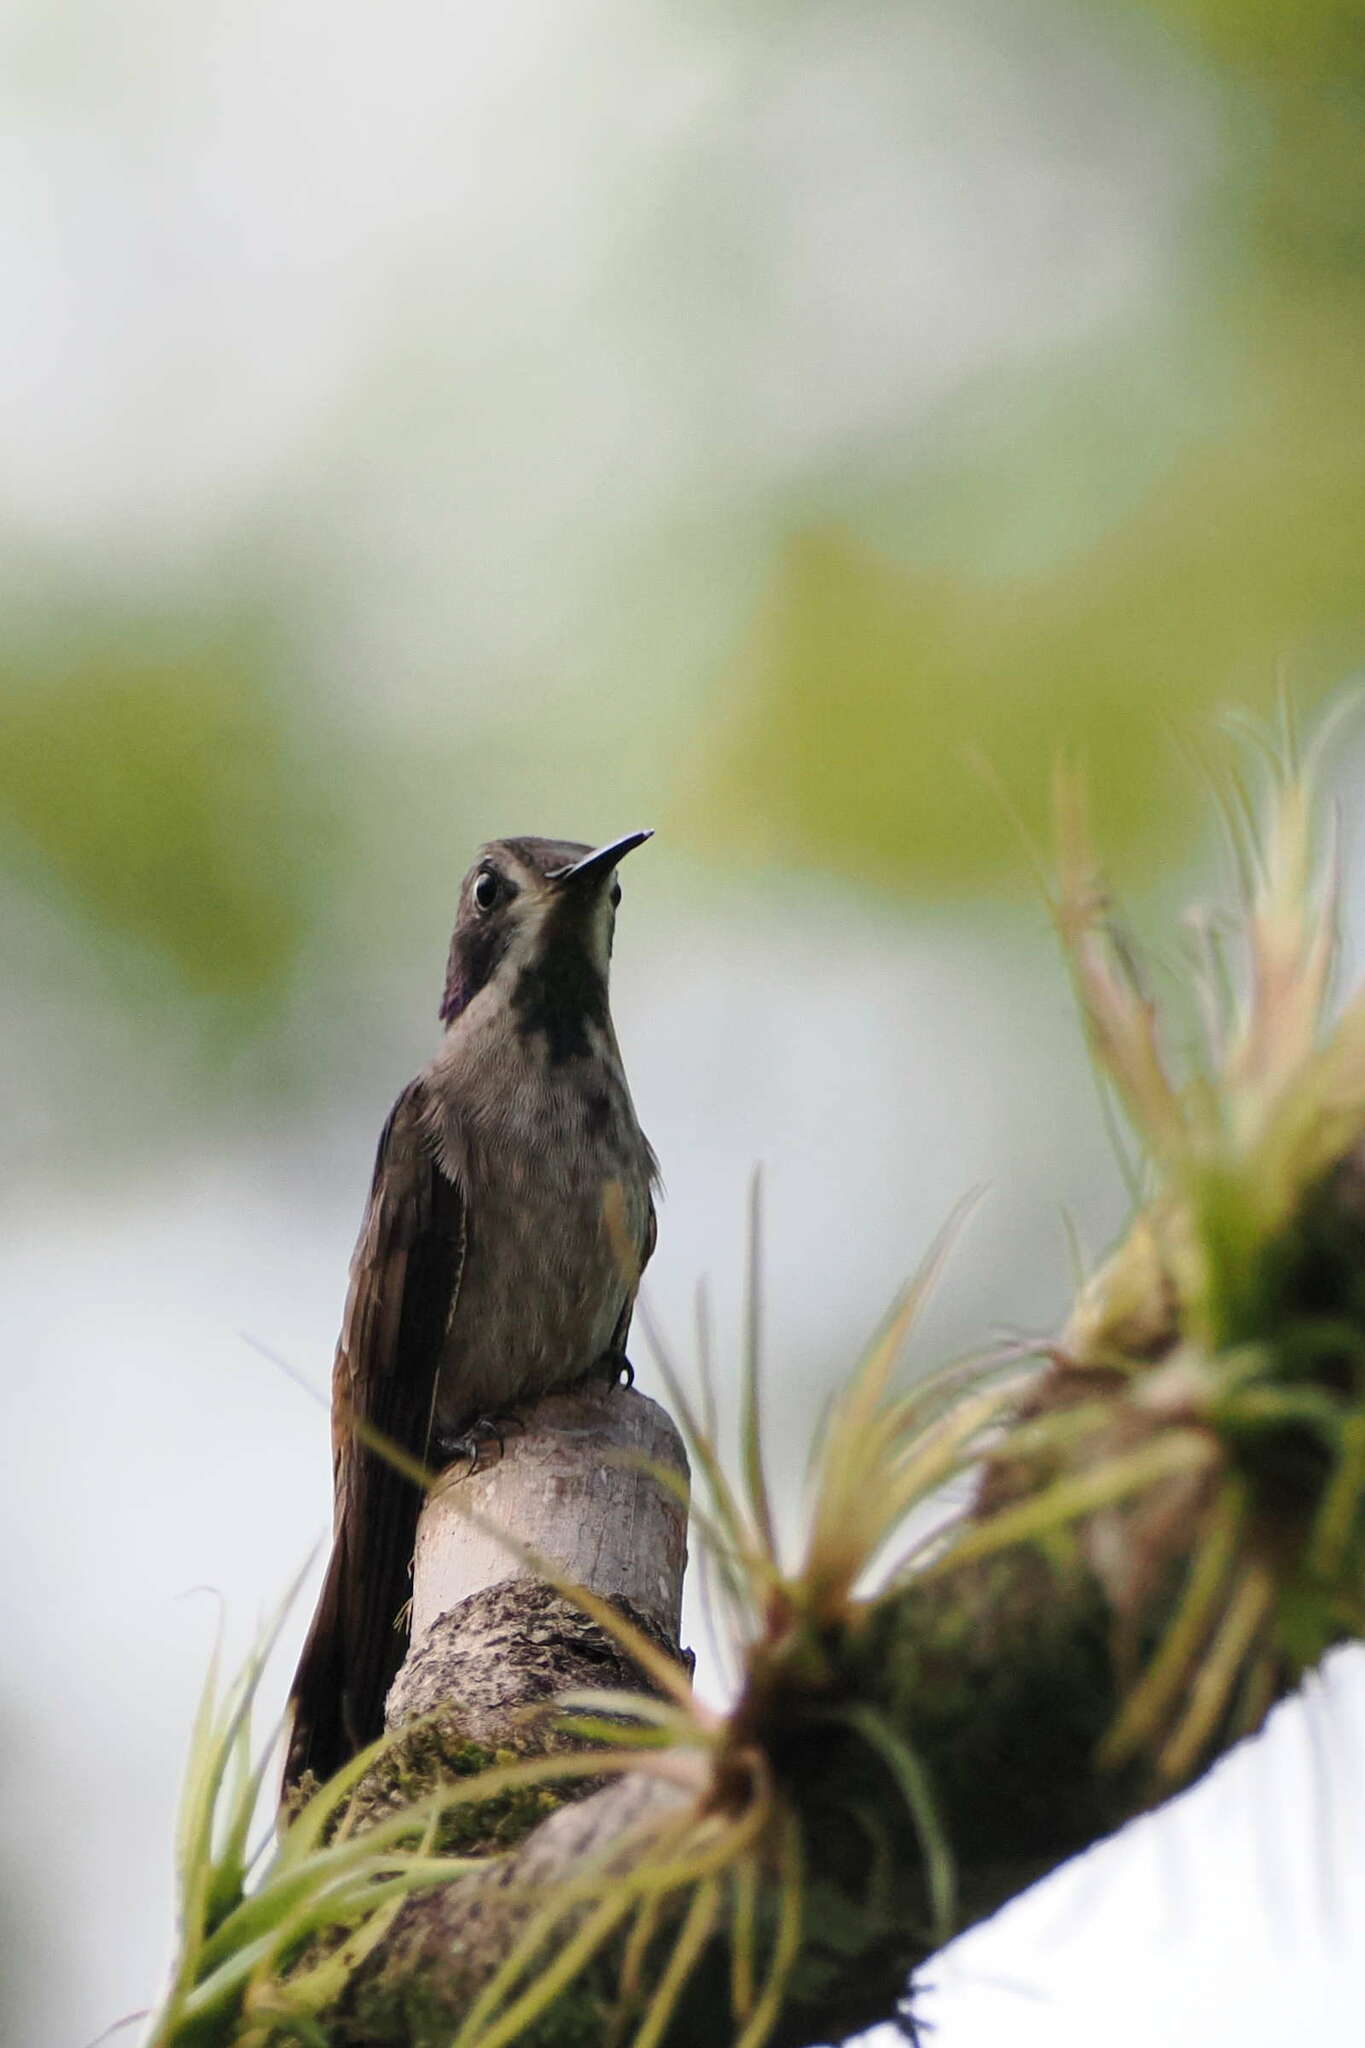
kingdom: Animalia
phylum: Chordata
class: Aves
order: Apodiformes
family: Trochilidae
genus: Colibri
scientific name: Colibri delphinae
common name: Brown violetear
